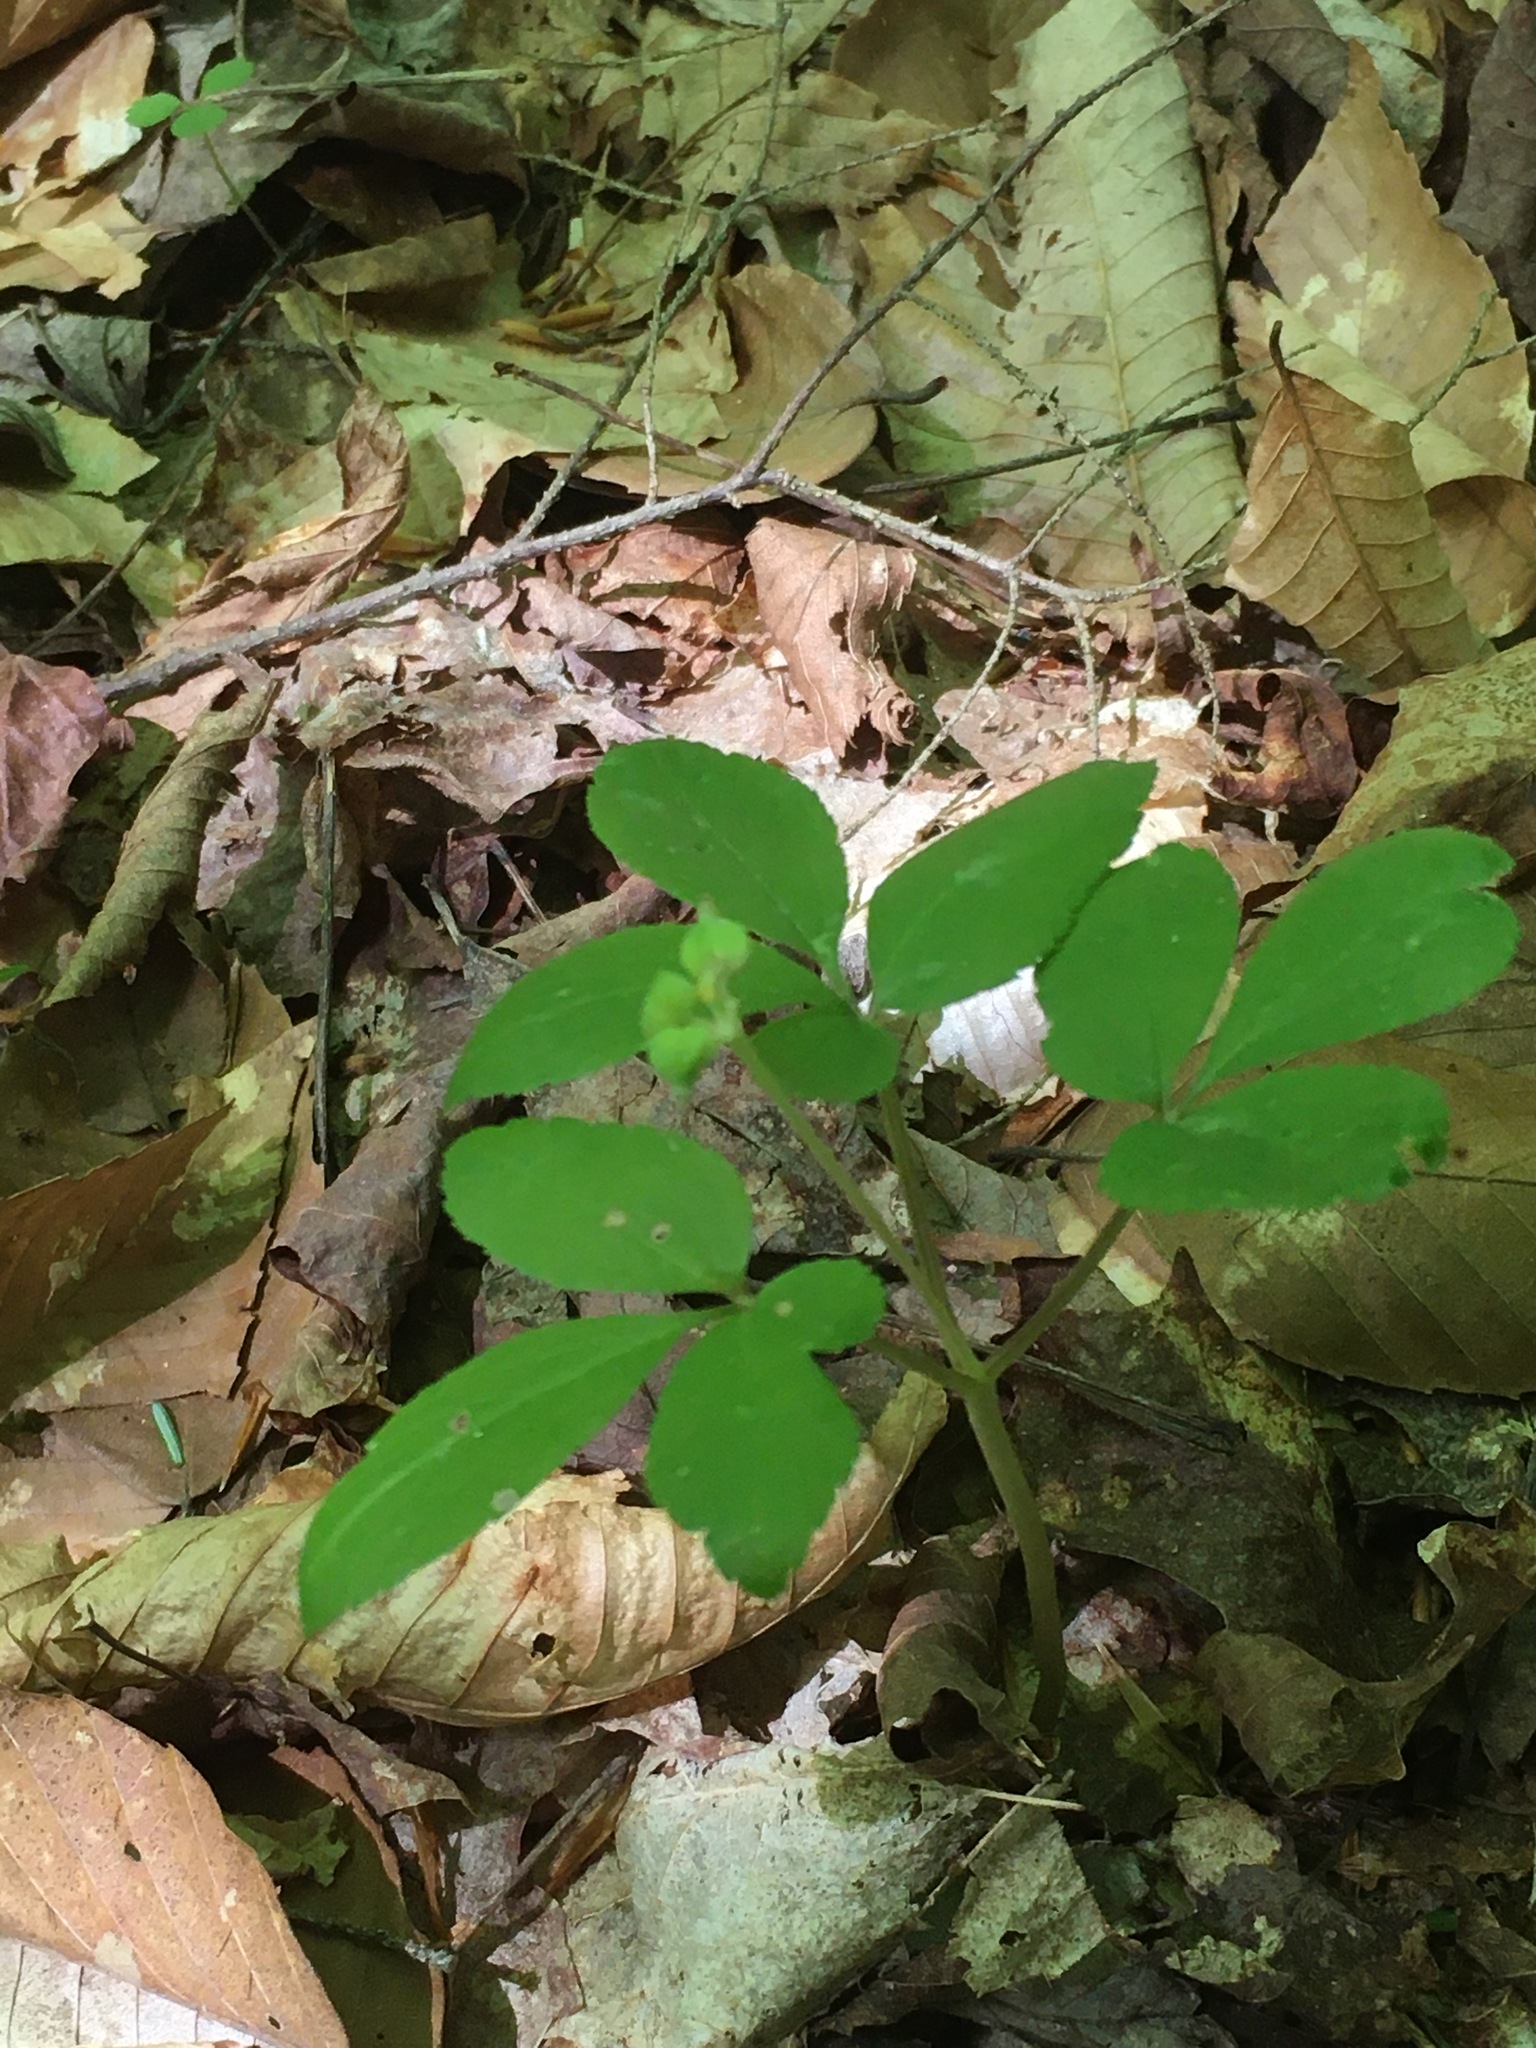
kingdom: Plantae
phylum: Tracheophyta
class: Magnoliopsida
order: Apiales
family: Araliaceae
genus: Panax
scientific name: Panax trifolius
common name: Dwarf ginseng
